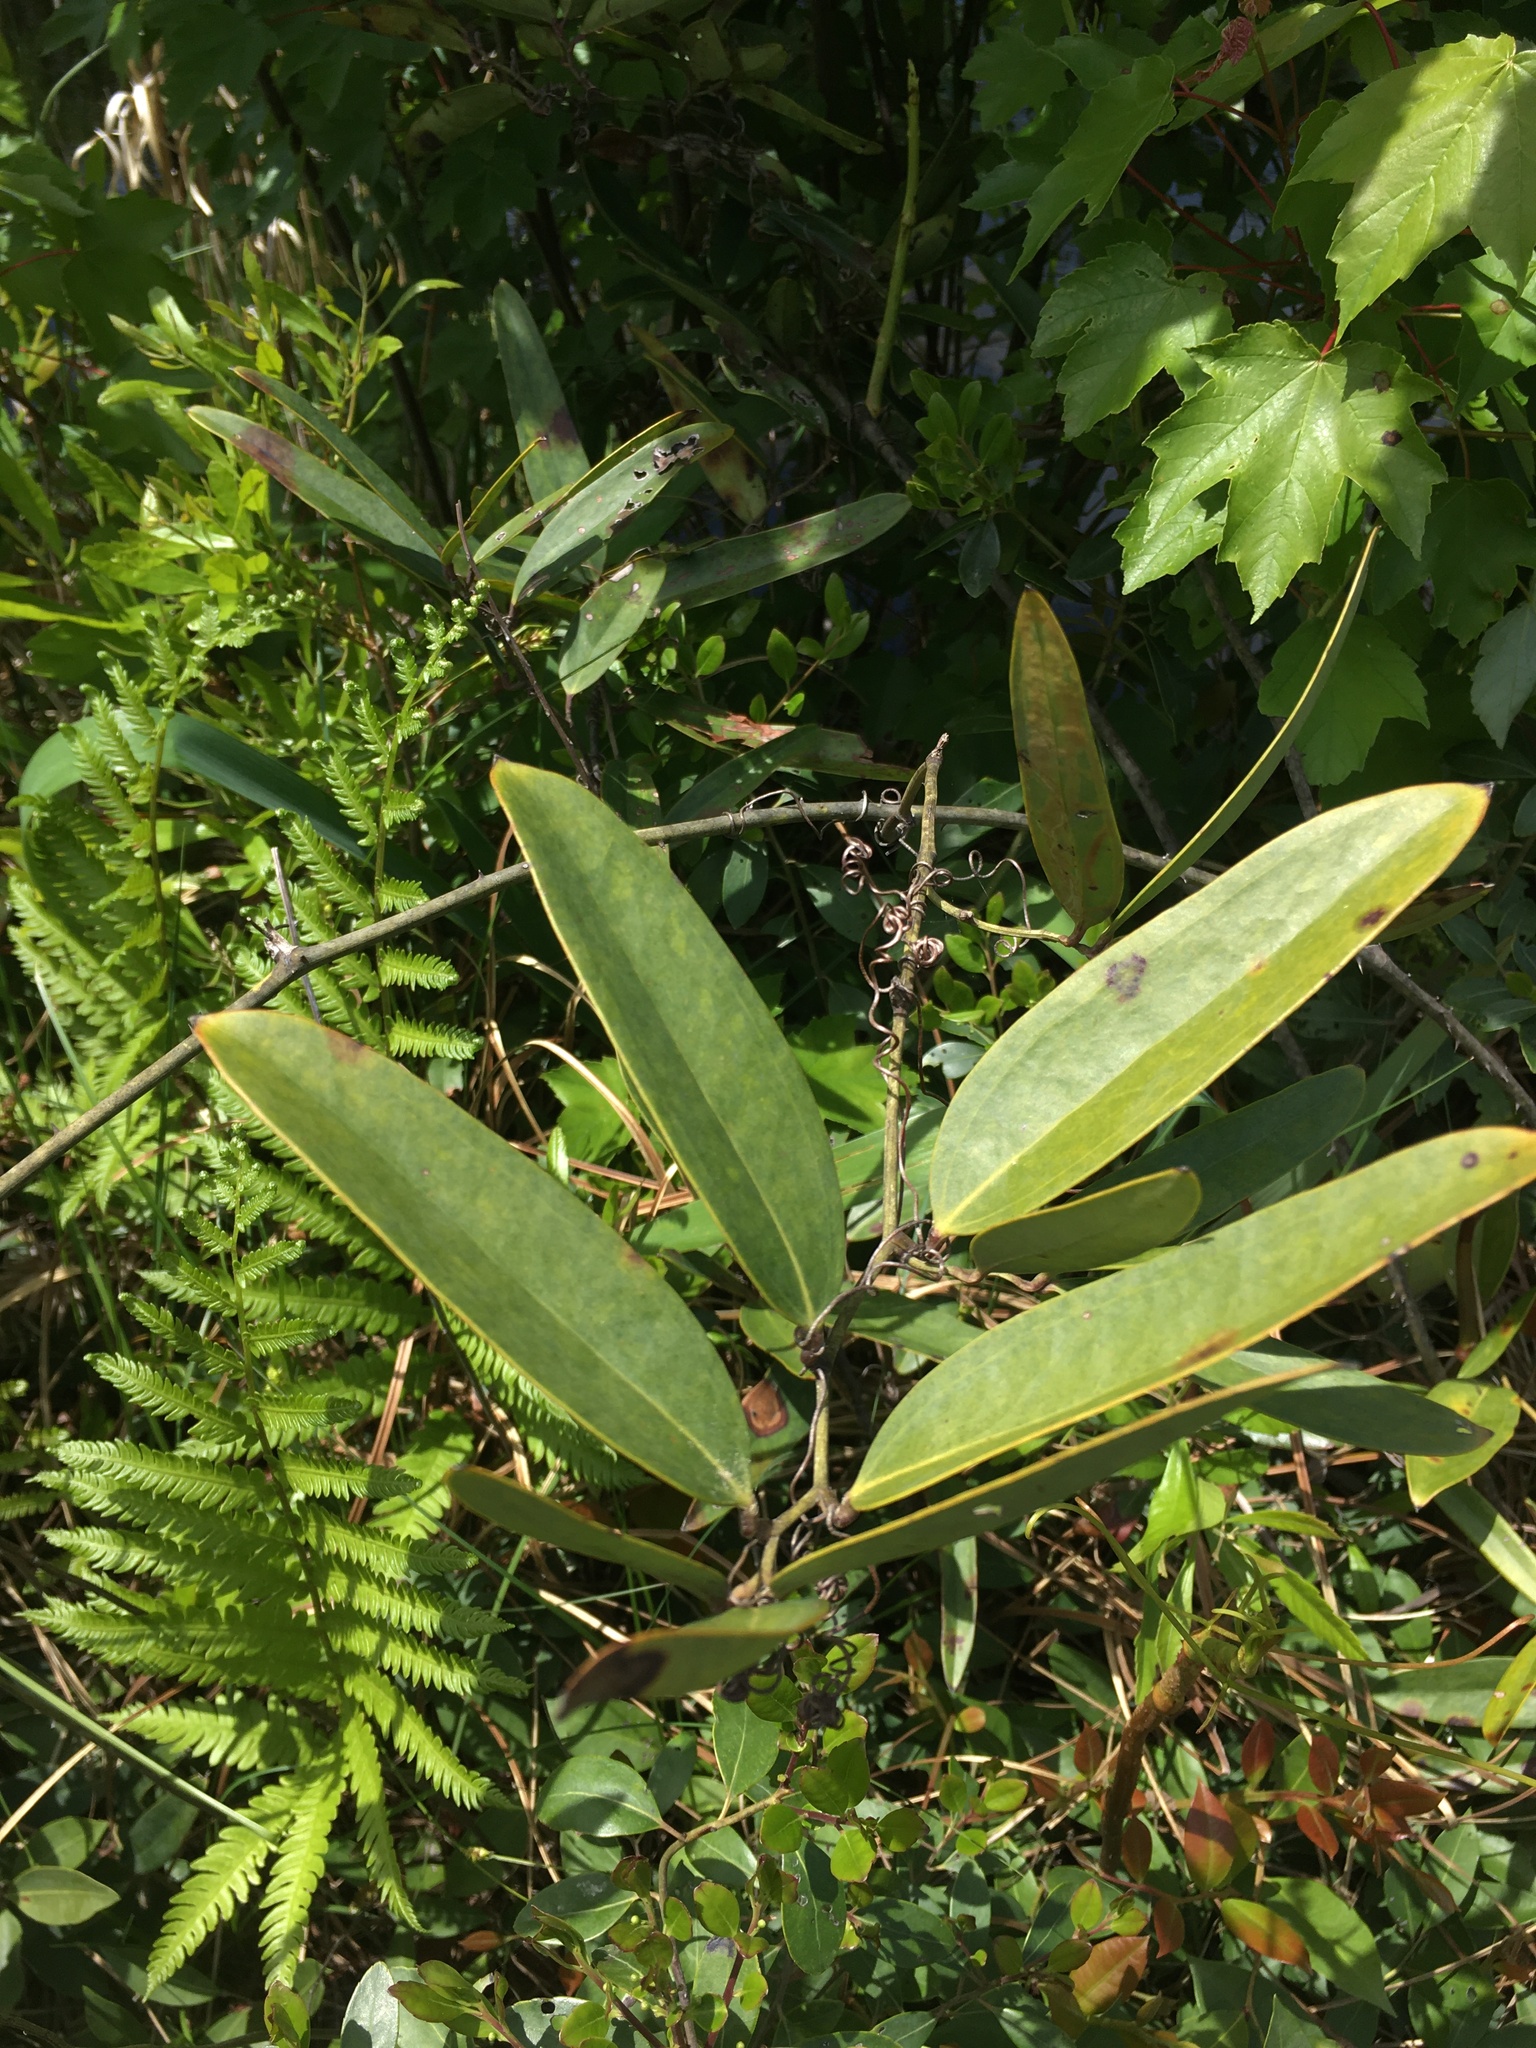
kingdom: Plantae
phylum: Tracheophyta
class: Liliopsida
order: Liliales
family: Smilacaceae
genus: Smilax
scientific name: Smilax laurifolia
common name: Bamboovine
